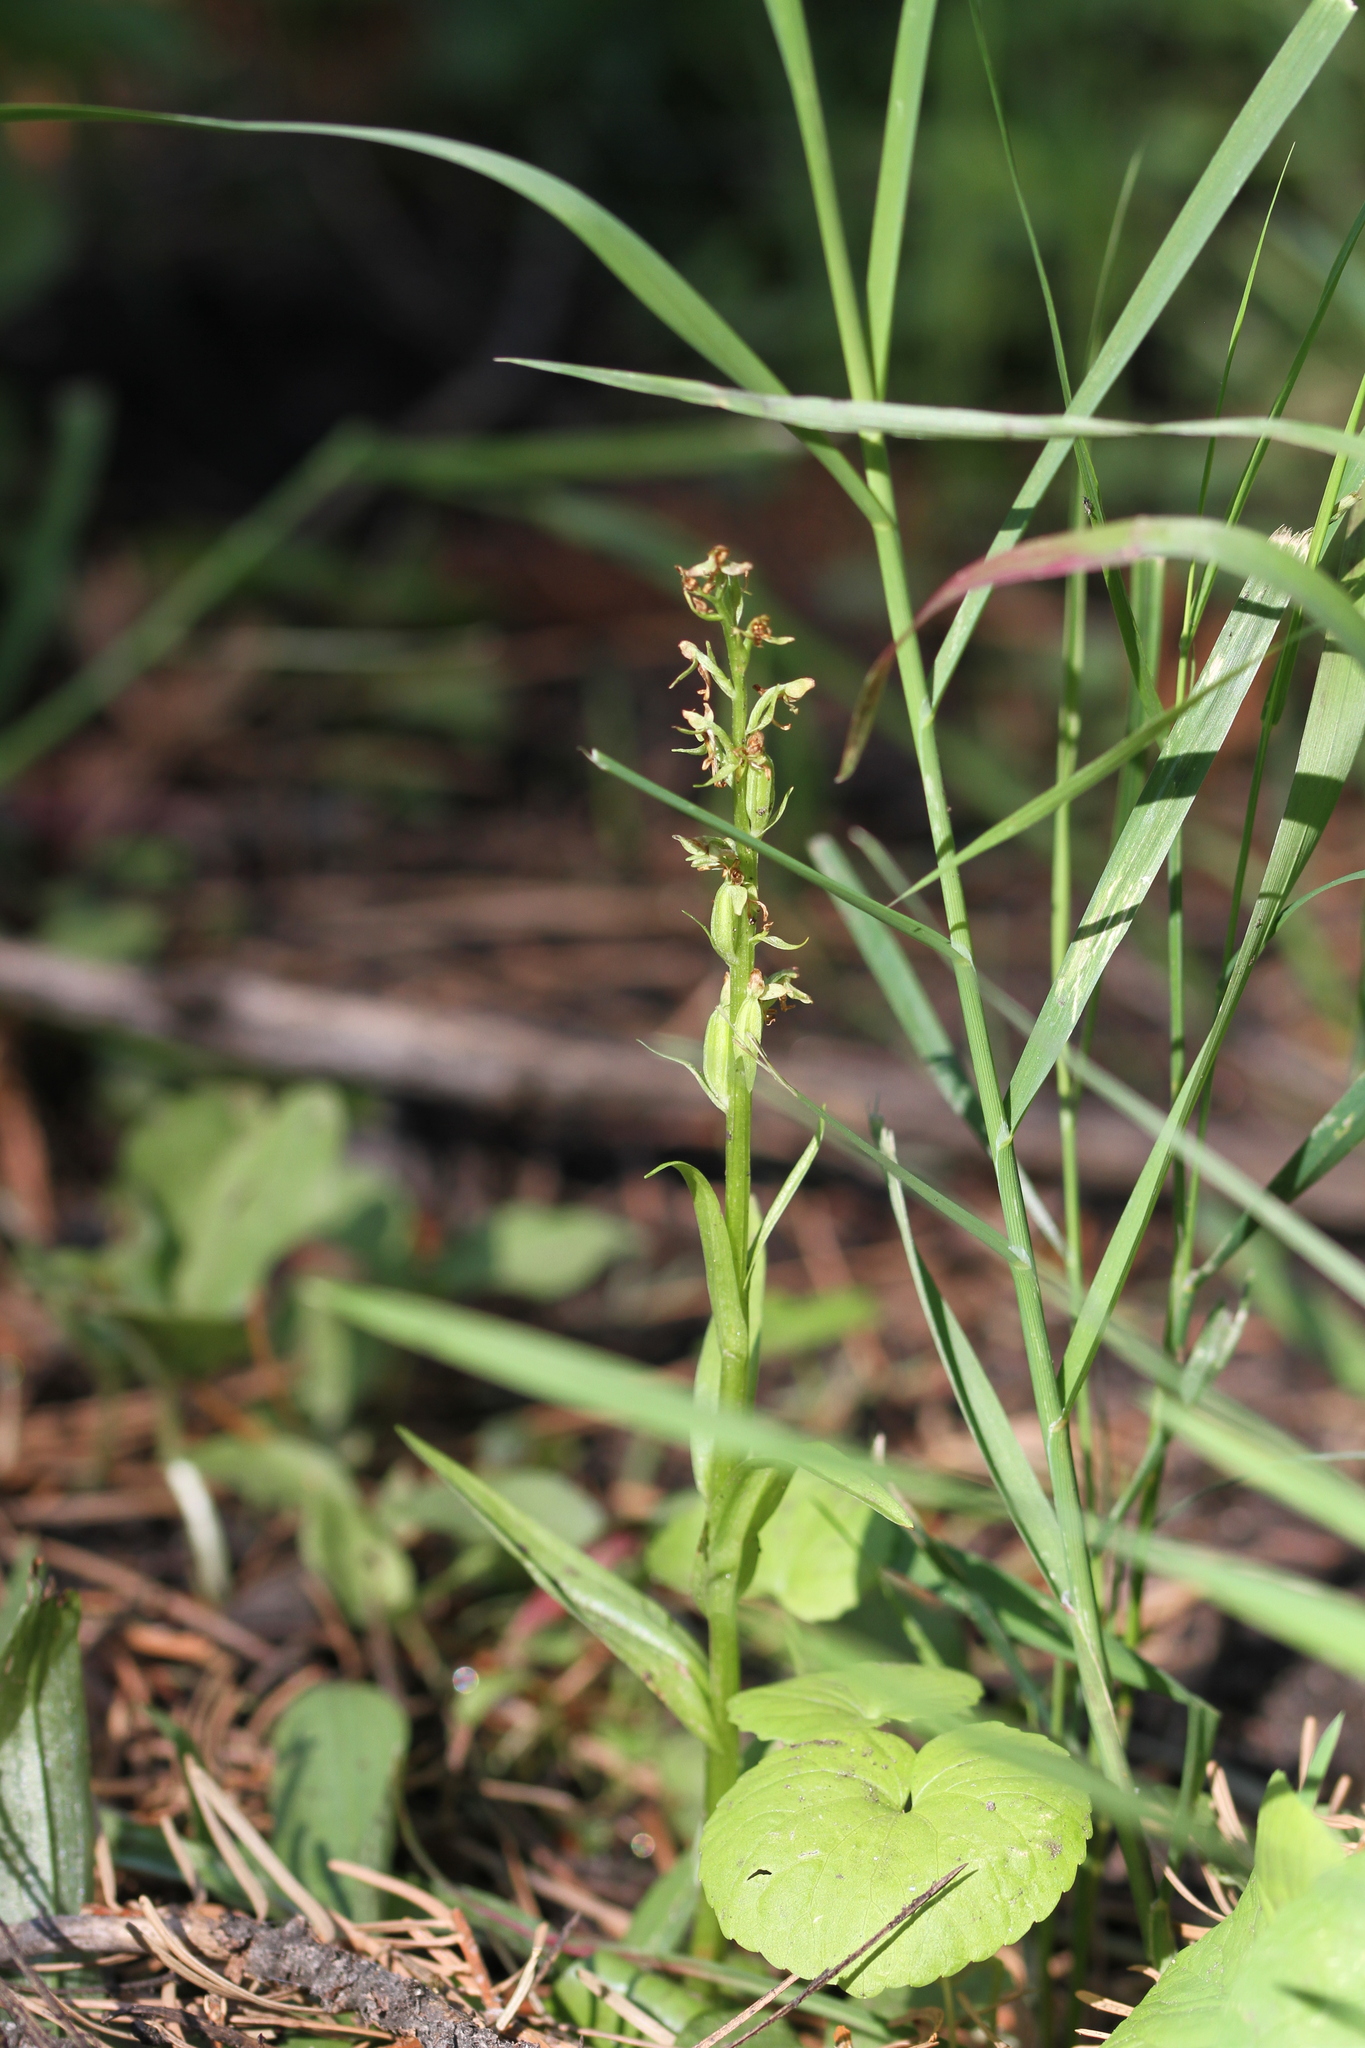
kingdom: Plantae
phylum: Tracheophyta
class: Liliopsida
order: Asparagales
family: Orchidaceae
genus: Platanthera
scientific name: Platanthera sparsiflora
